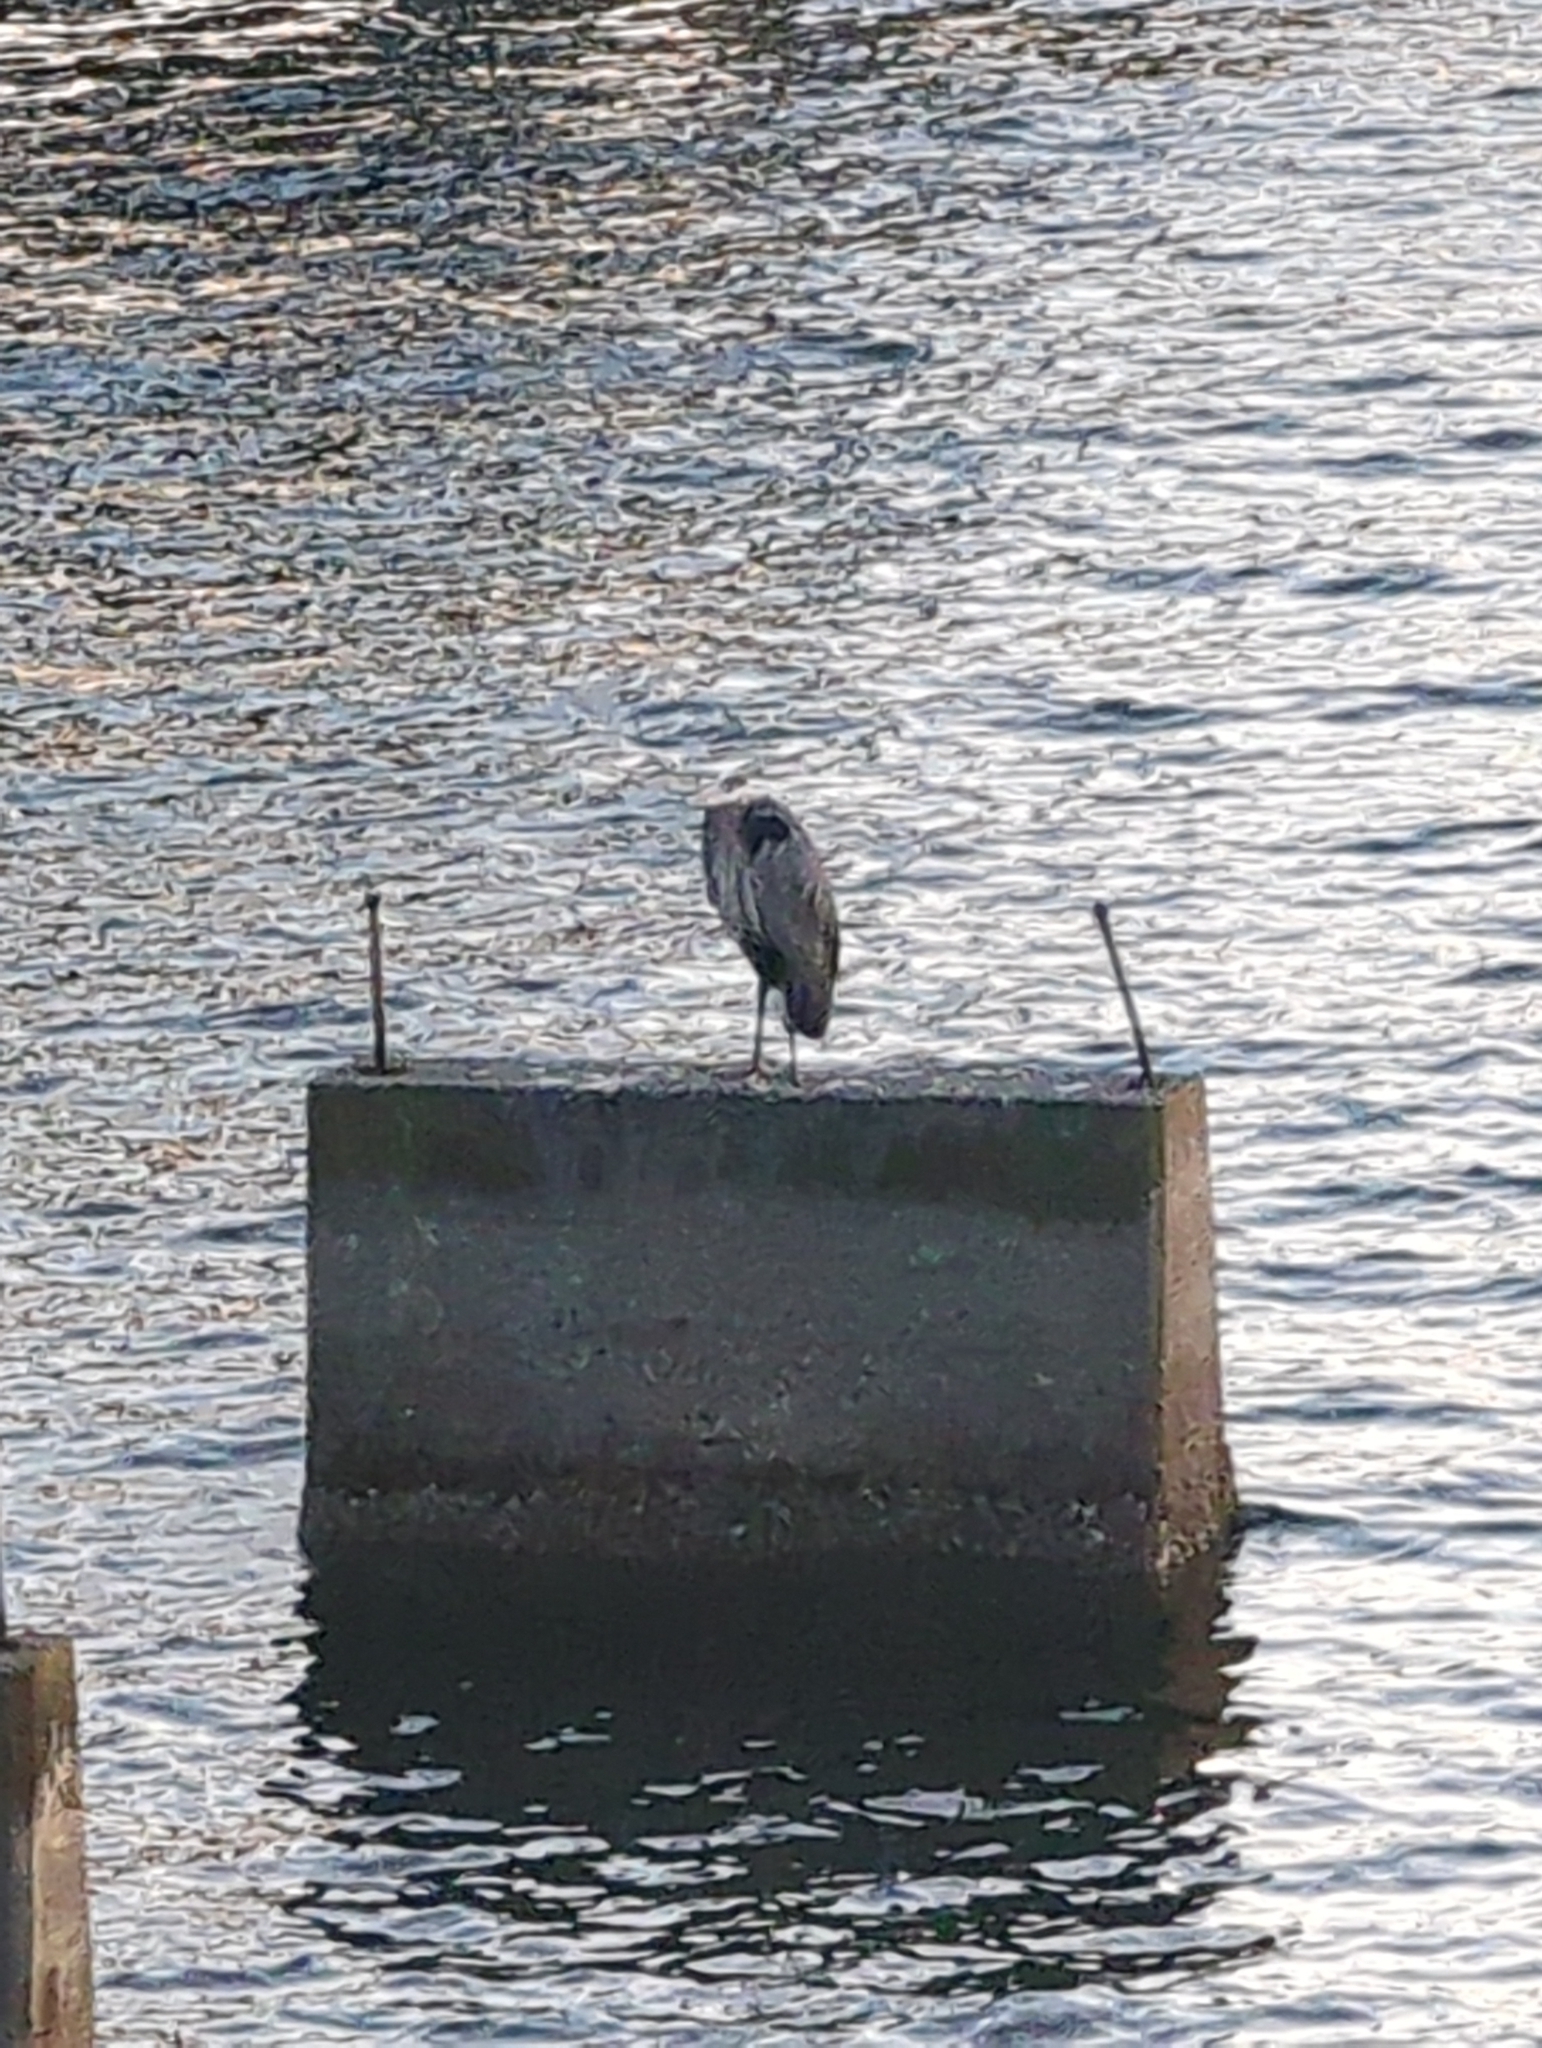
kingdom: Animalia
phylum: Chordata
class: Aves
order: Pelecaniformes
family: Ardeidae
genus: Ardea
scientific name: Ardea herodias
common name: Great blue heron
